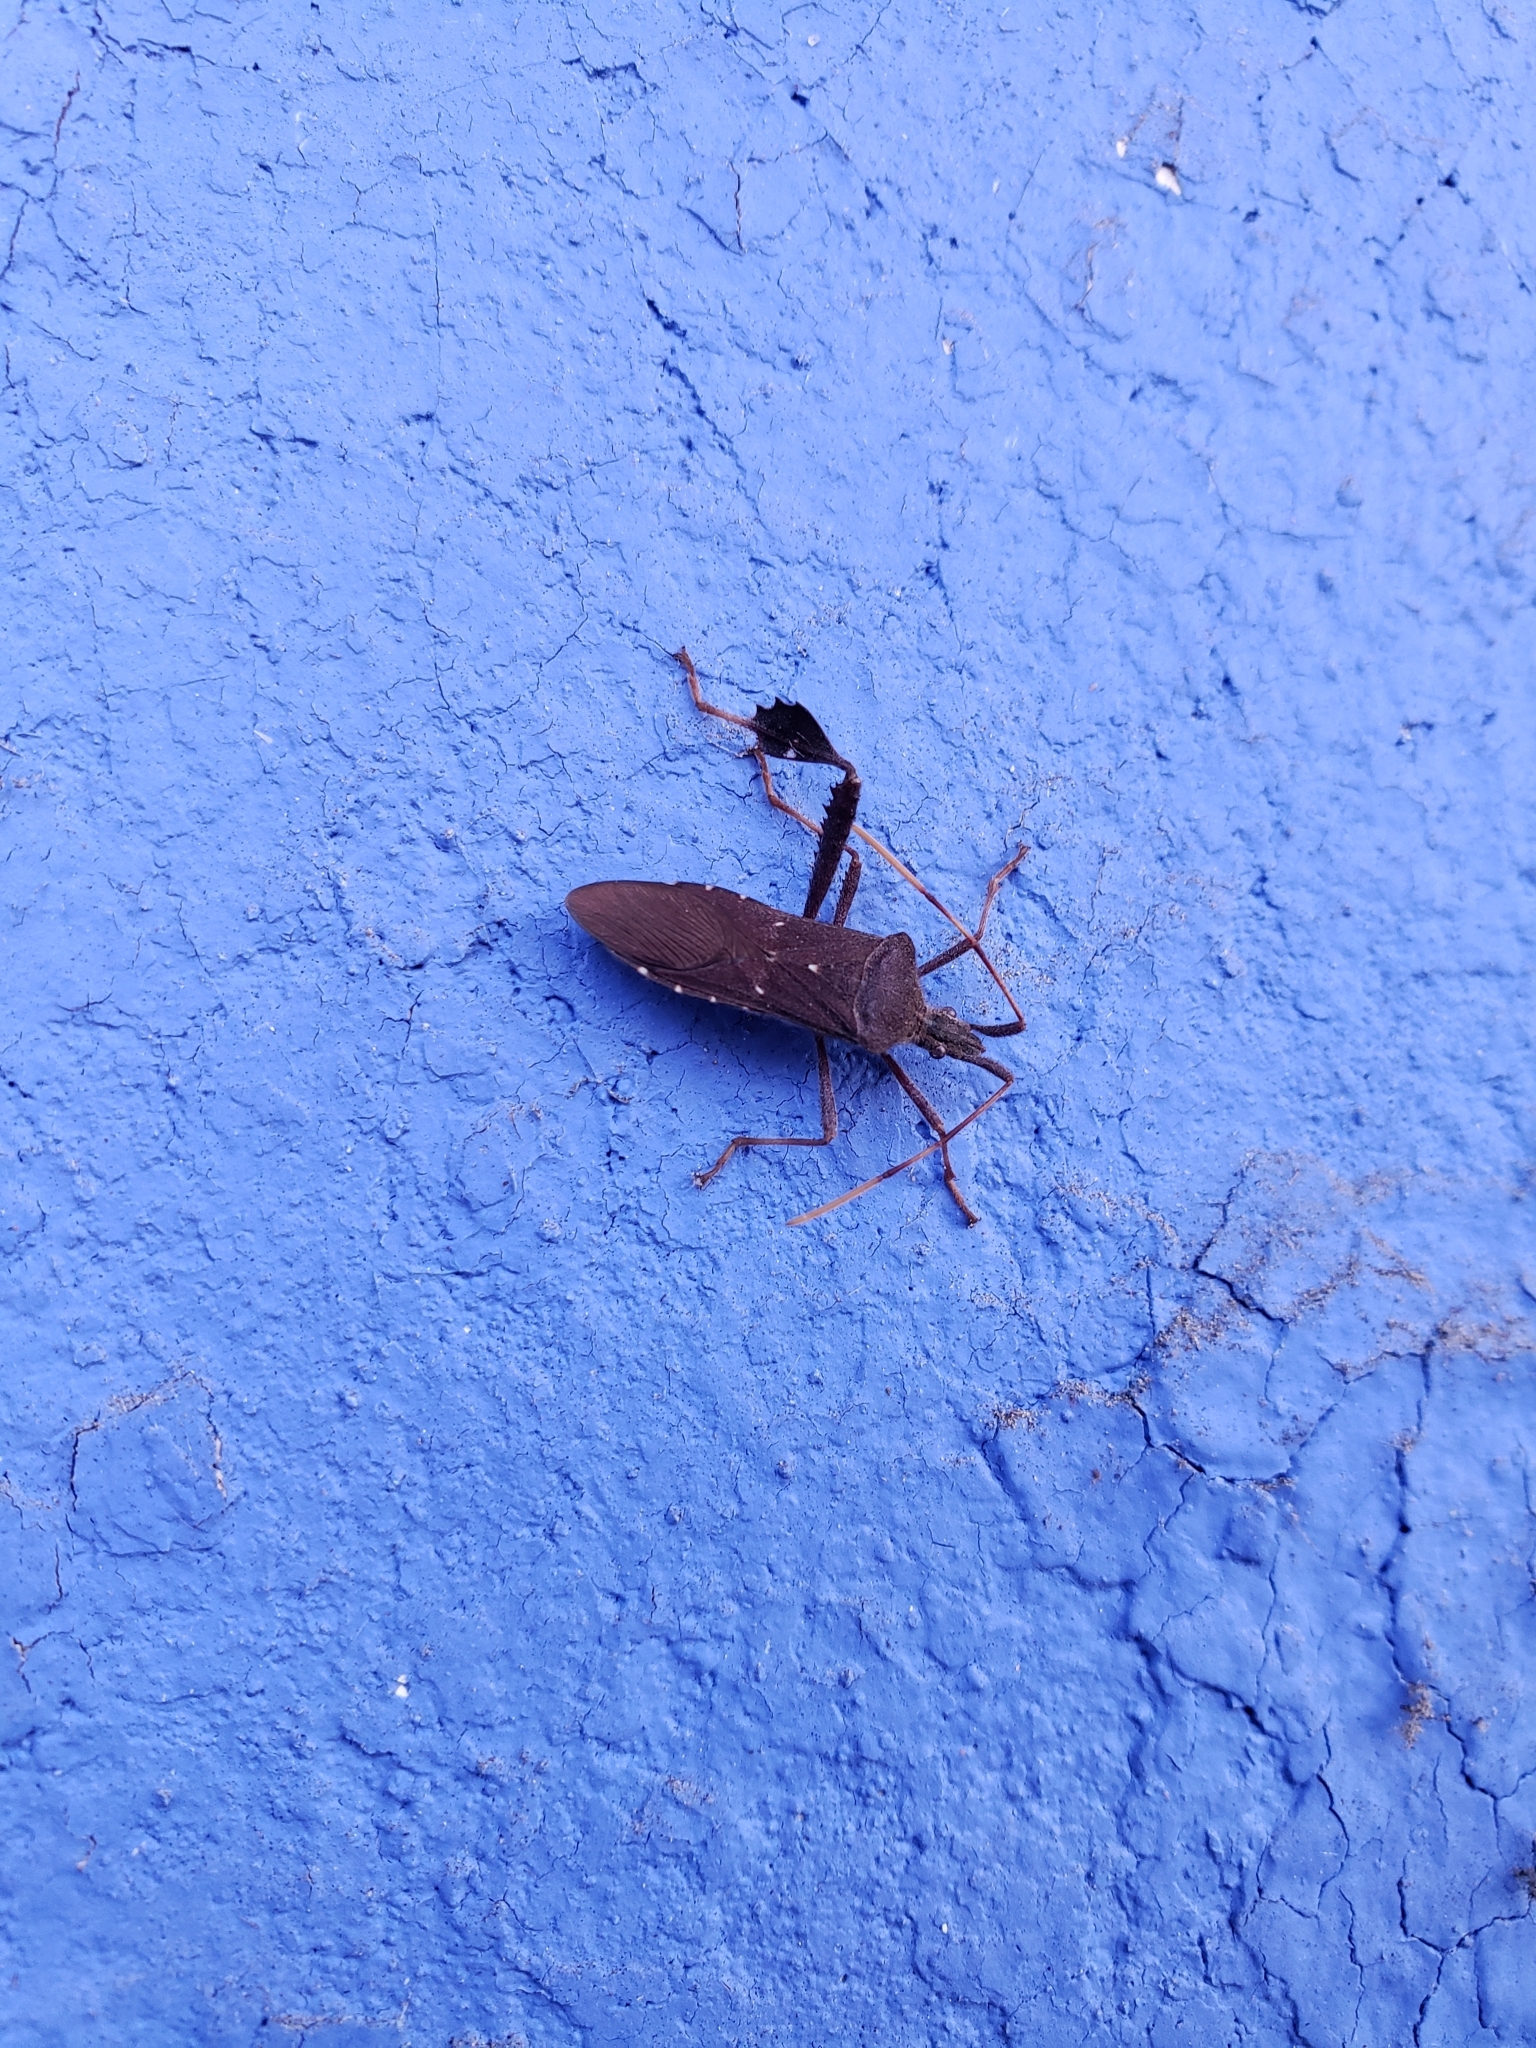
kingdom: Animalia
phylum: Arthropoda
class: Insecta
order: Hemiptera
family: Coreidae
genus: Leptoglossus
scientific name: Leptoglossus oppositus
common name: Northern leaf-footed bug
